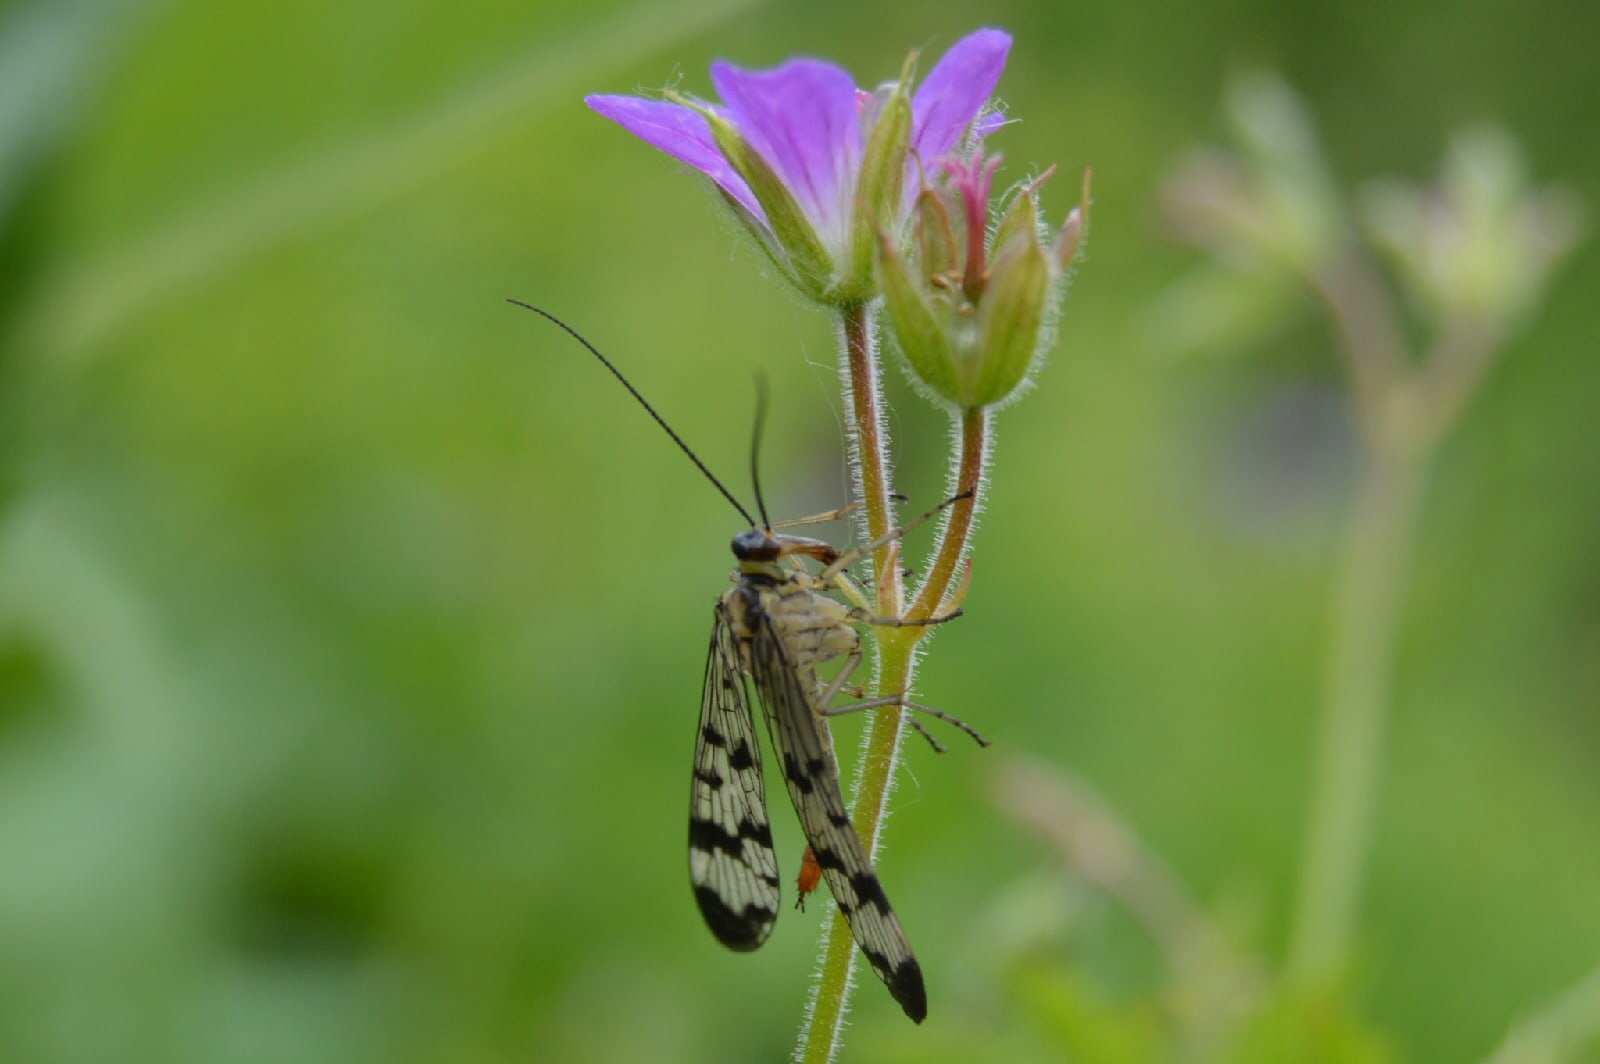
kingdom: Animalia
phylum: Arthropoda
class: Insecta
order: Mecoptera
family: Panorpidae
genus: Panorpa
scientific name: Panorpa communis
